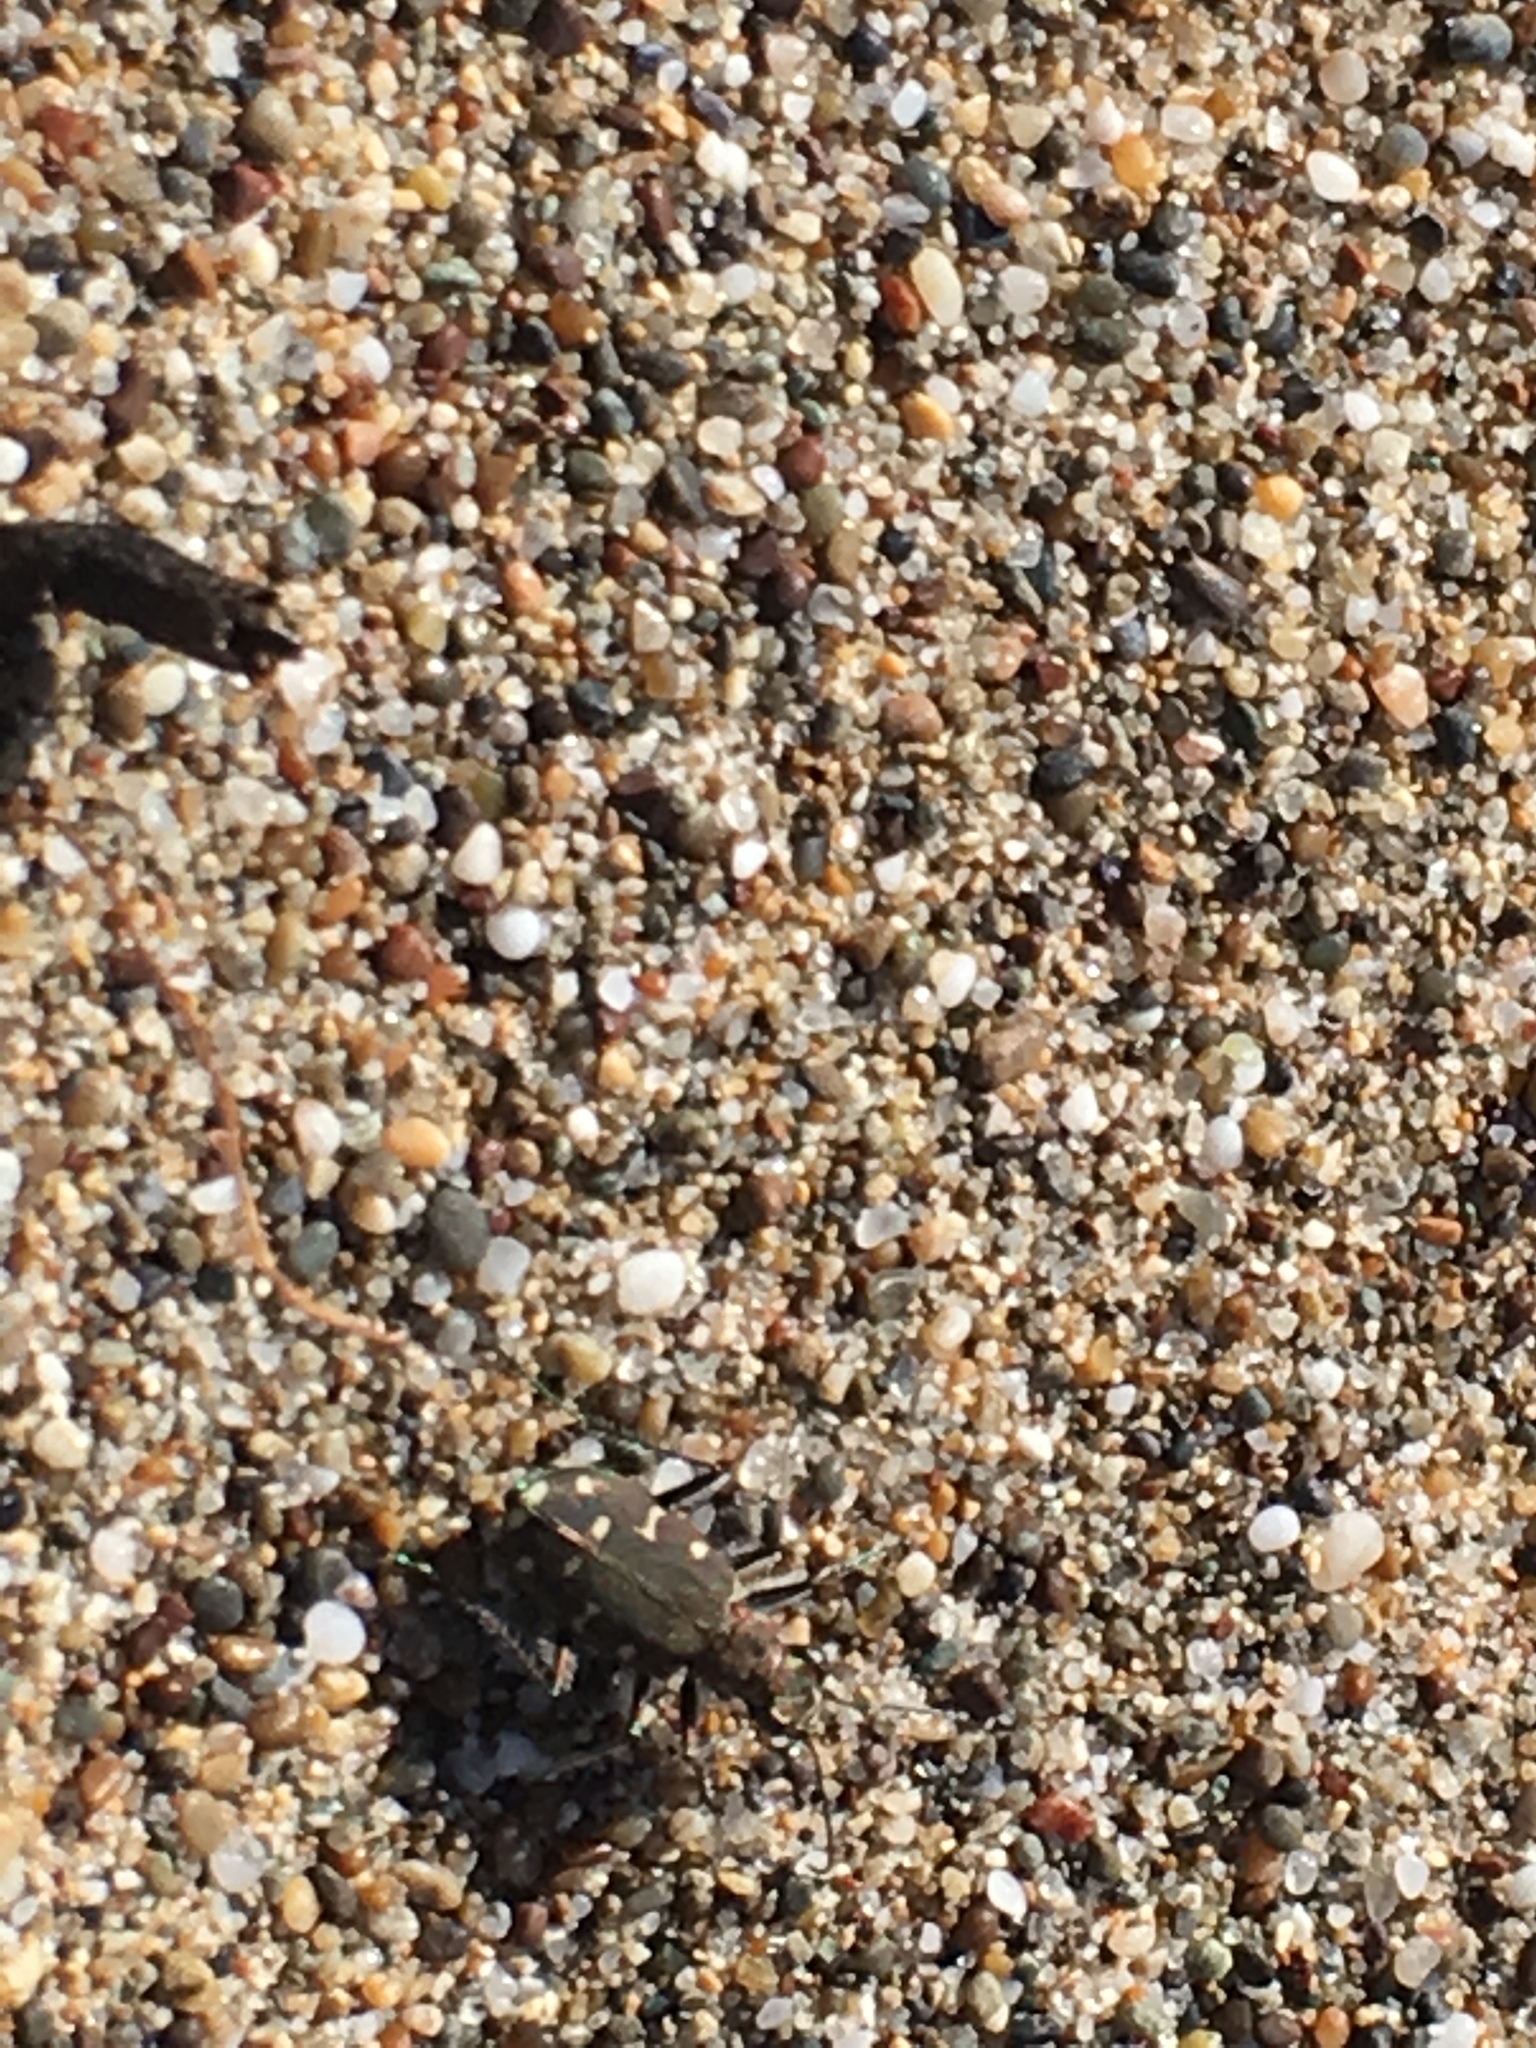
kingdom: Animalia
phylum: Arthropoda
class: Insecta
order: Coleoptera
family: Carabidae
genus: Cicindela
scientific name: Cicindela oregona
